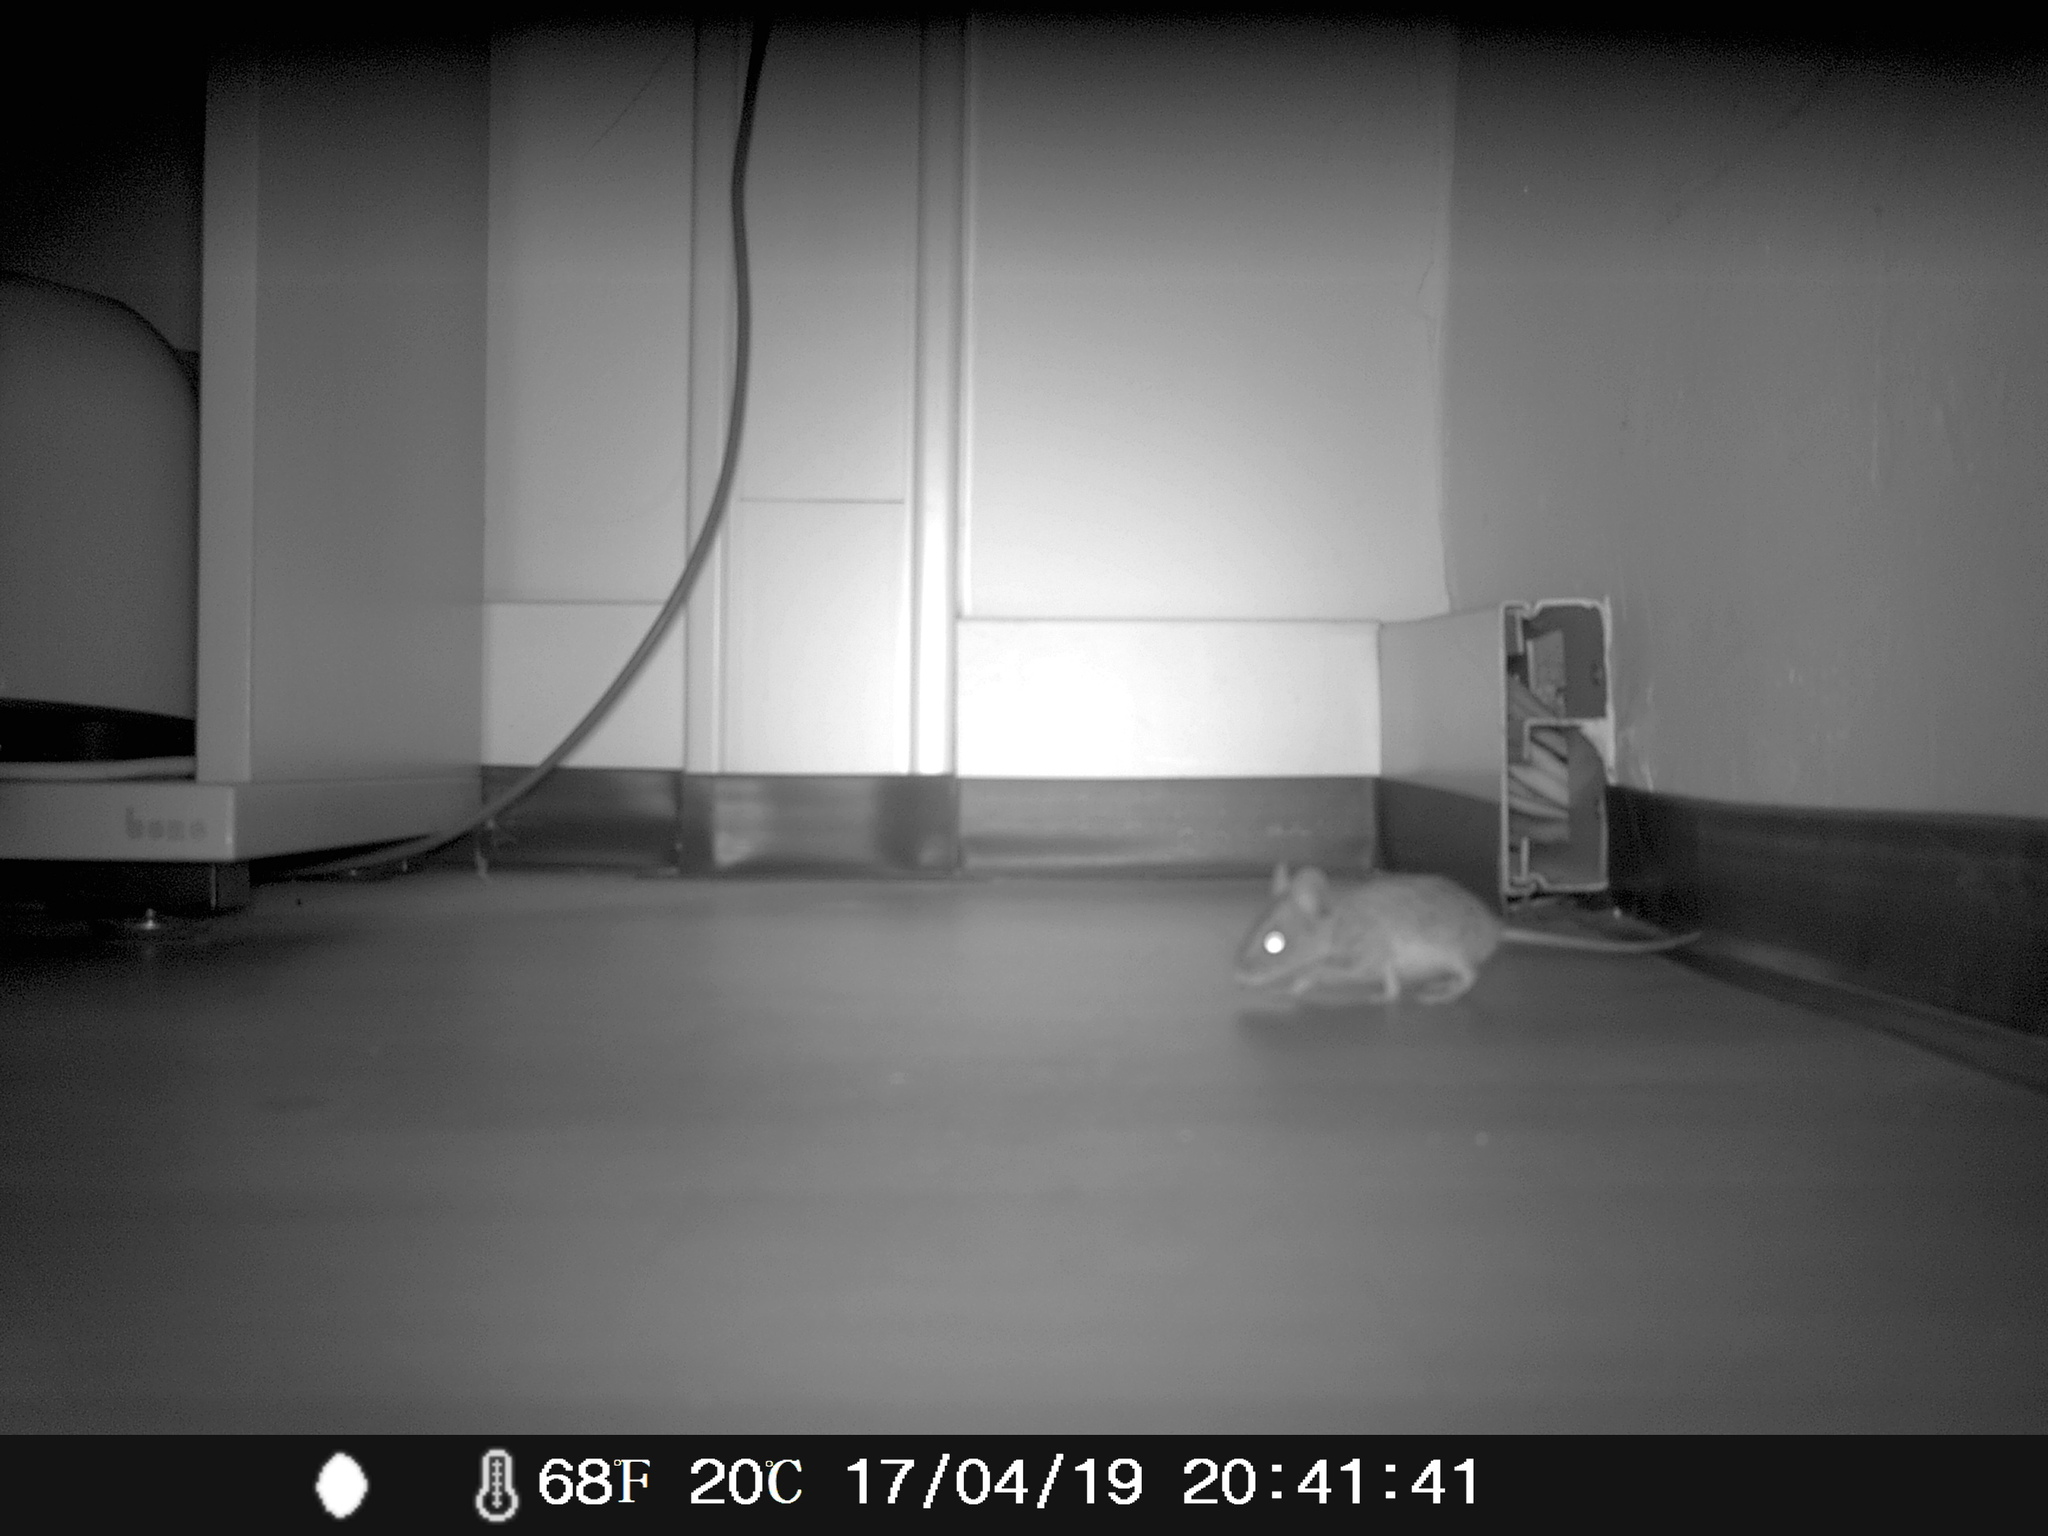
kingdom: Animalia
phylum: Chordata
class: Mammalia
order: Rodentia
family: Muridae
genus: Mus
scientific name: Mus musculus
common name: House mouse
